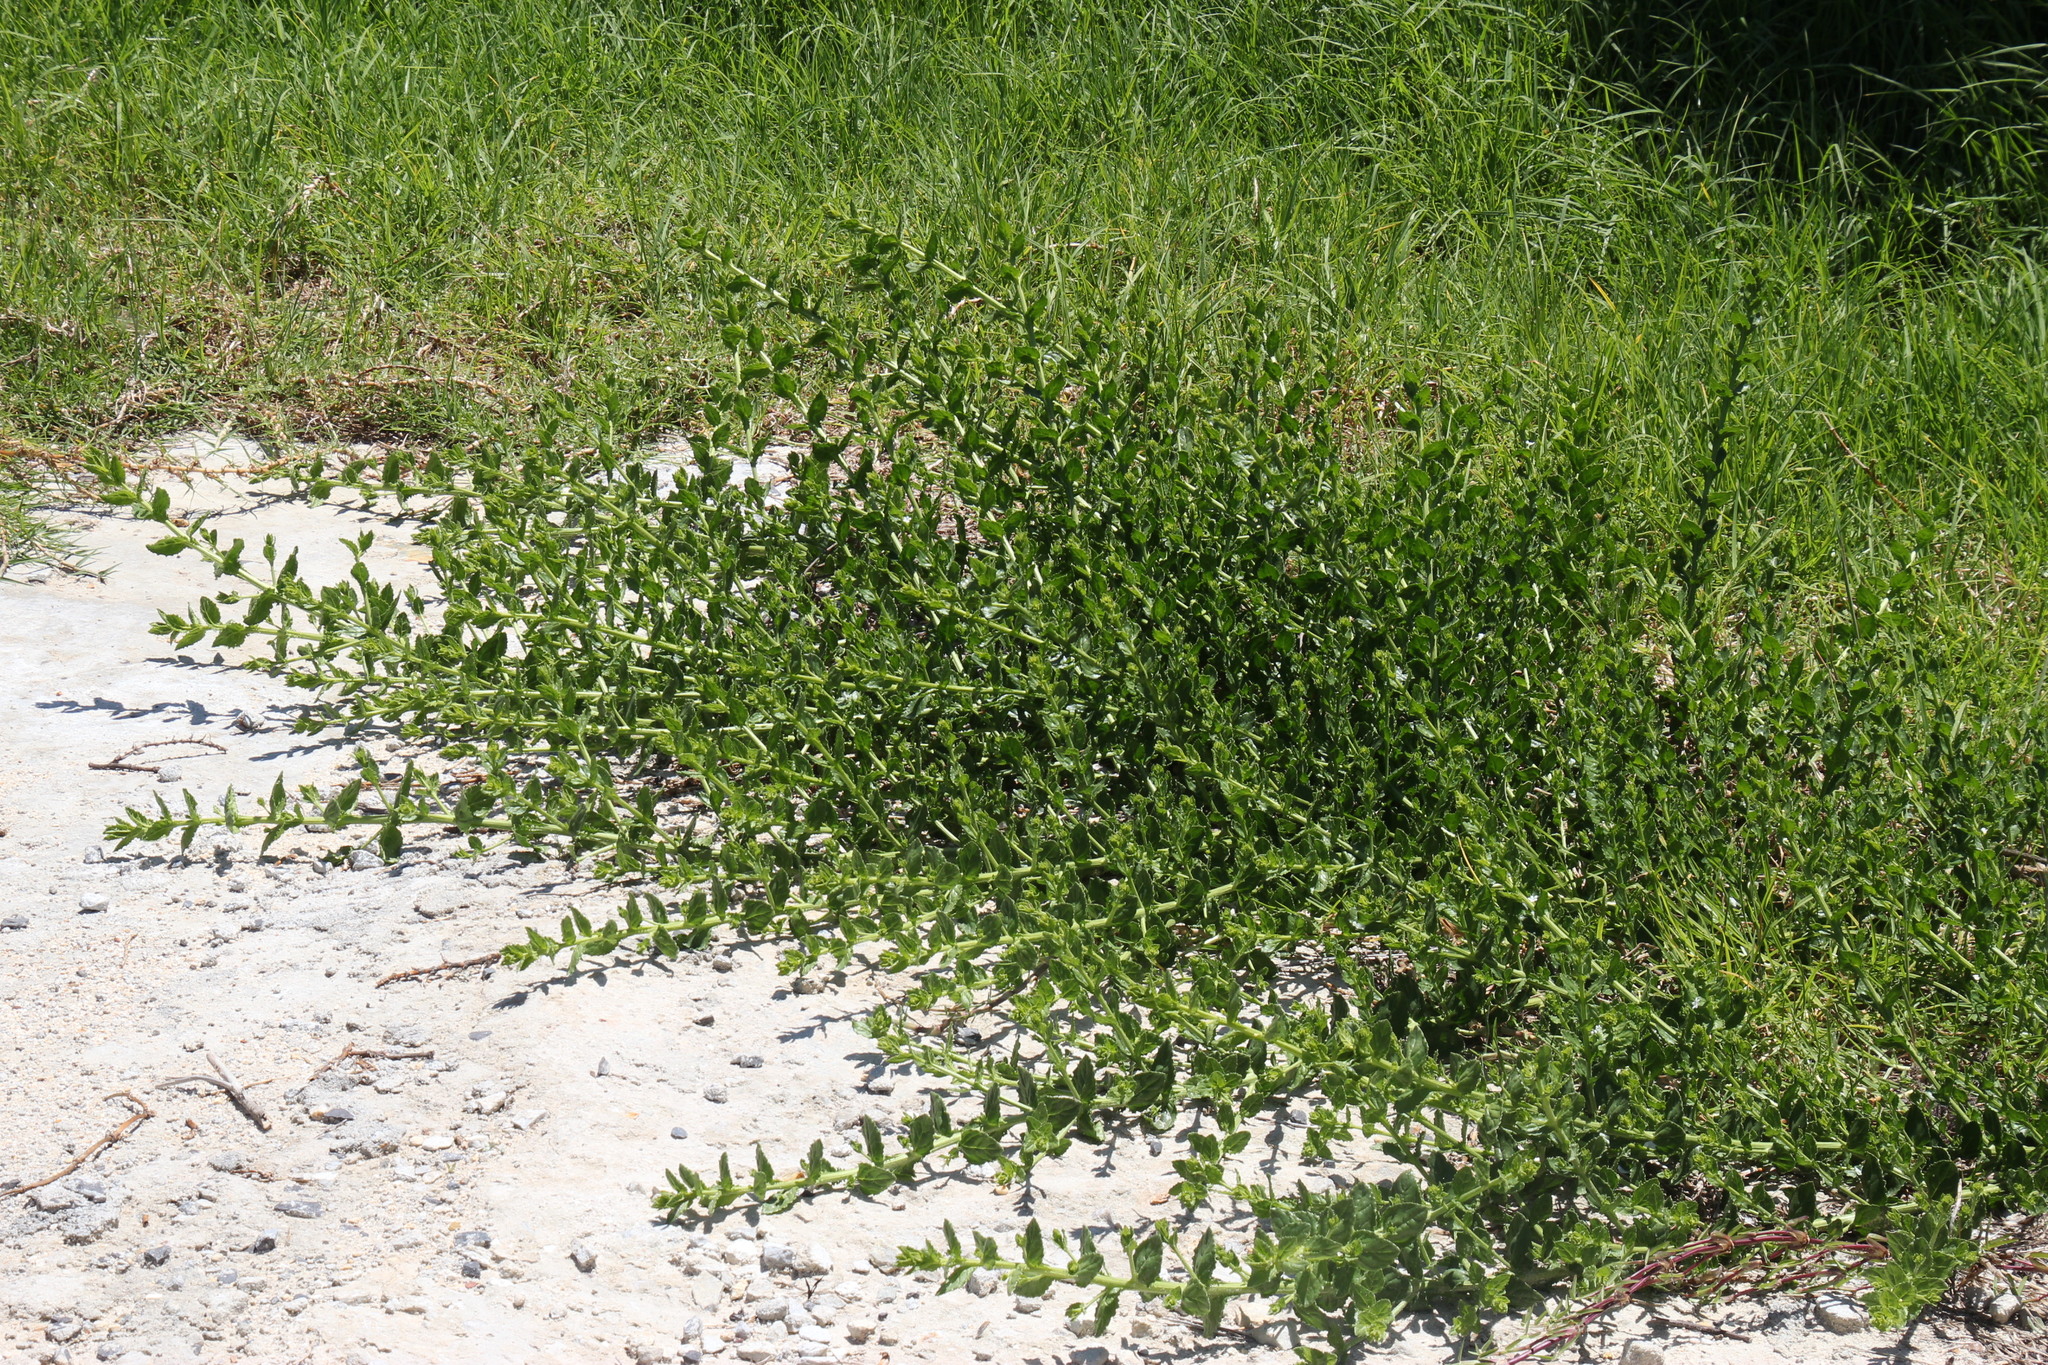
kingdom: Plantae
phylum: Tracheophyta
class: Magnoliopsida
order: Lamiales
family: Scrophulariaceae
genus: Oftia
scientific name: Oftia africana
